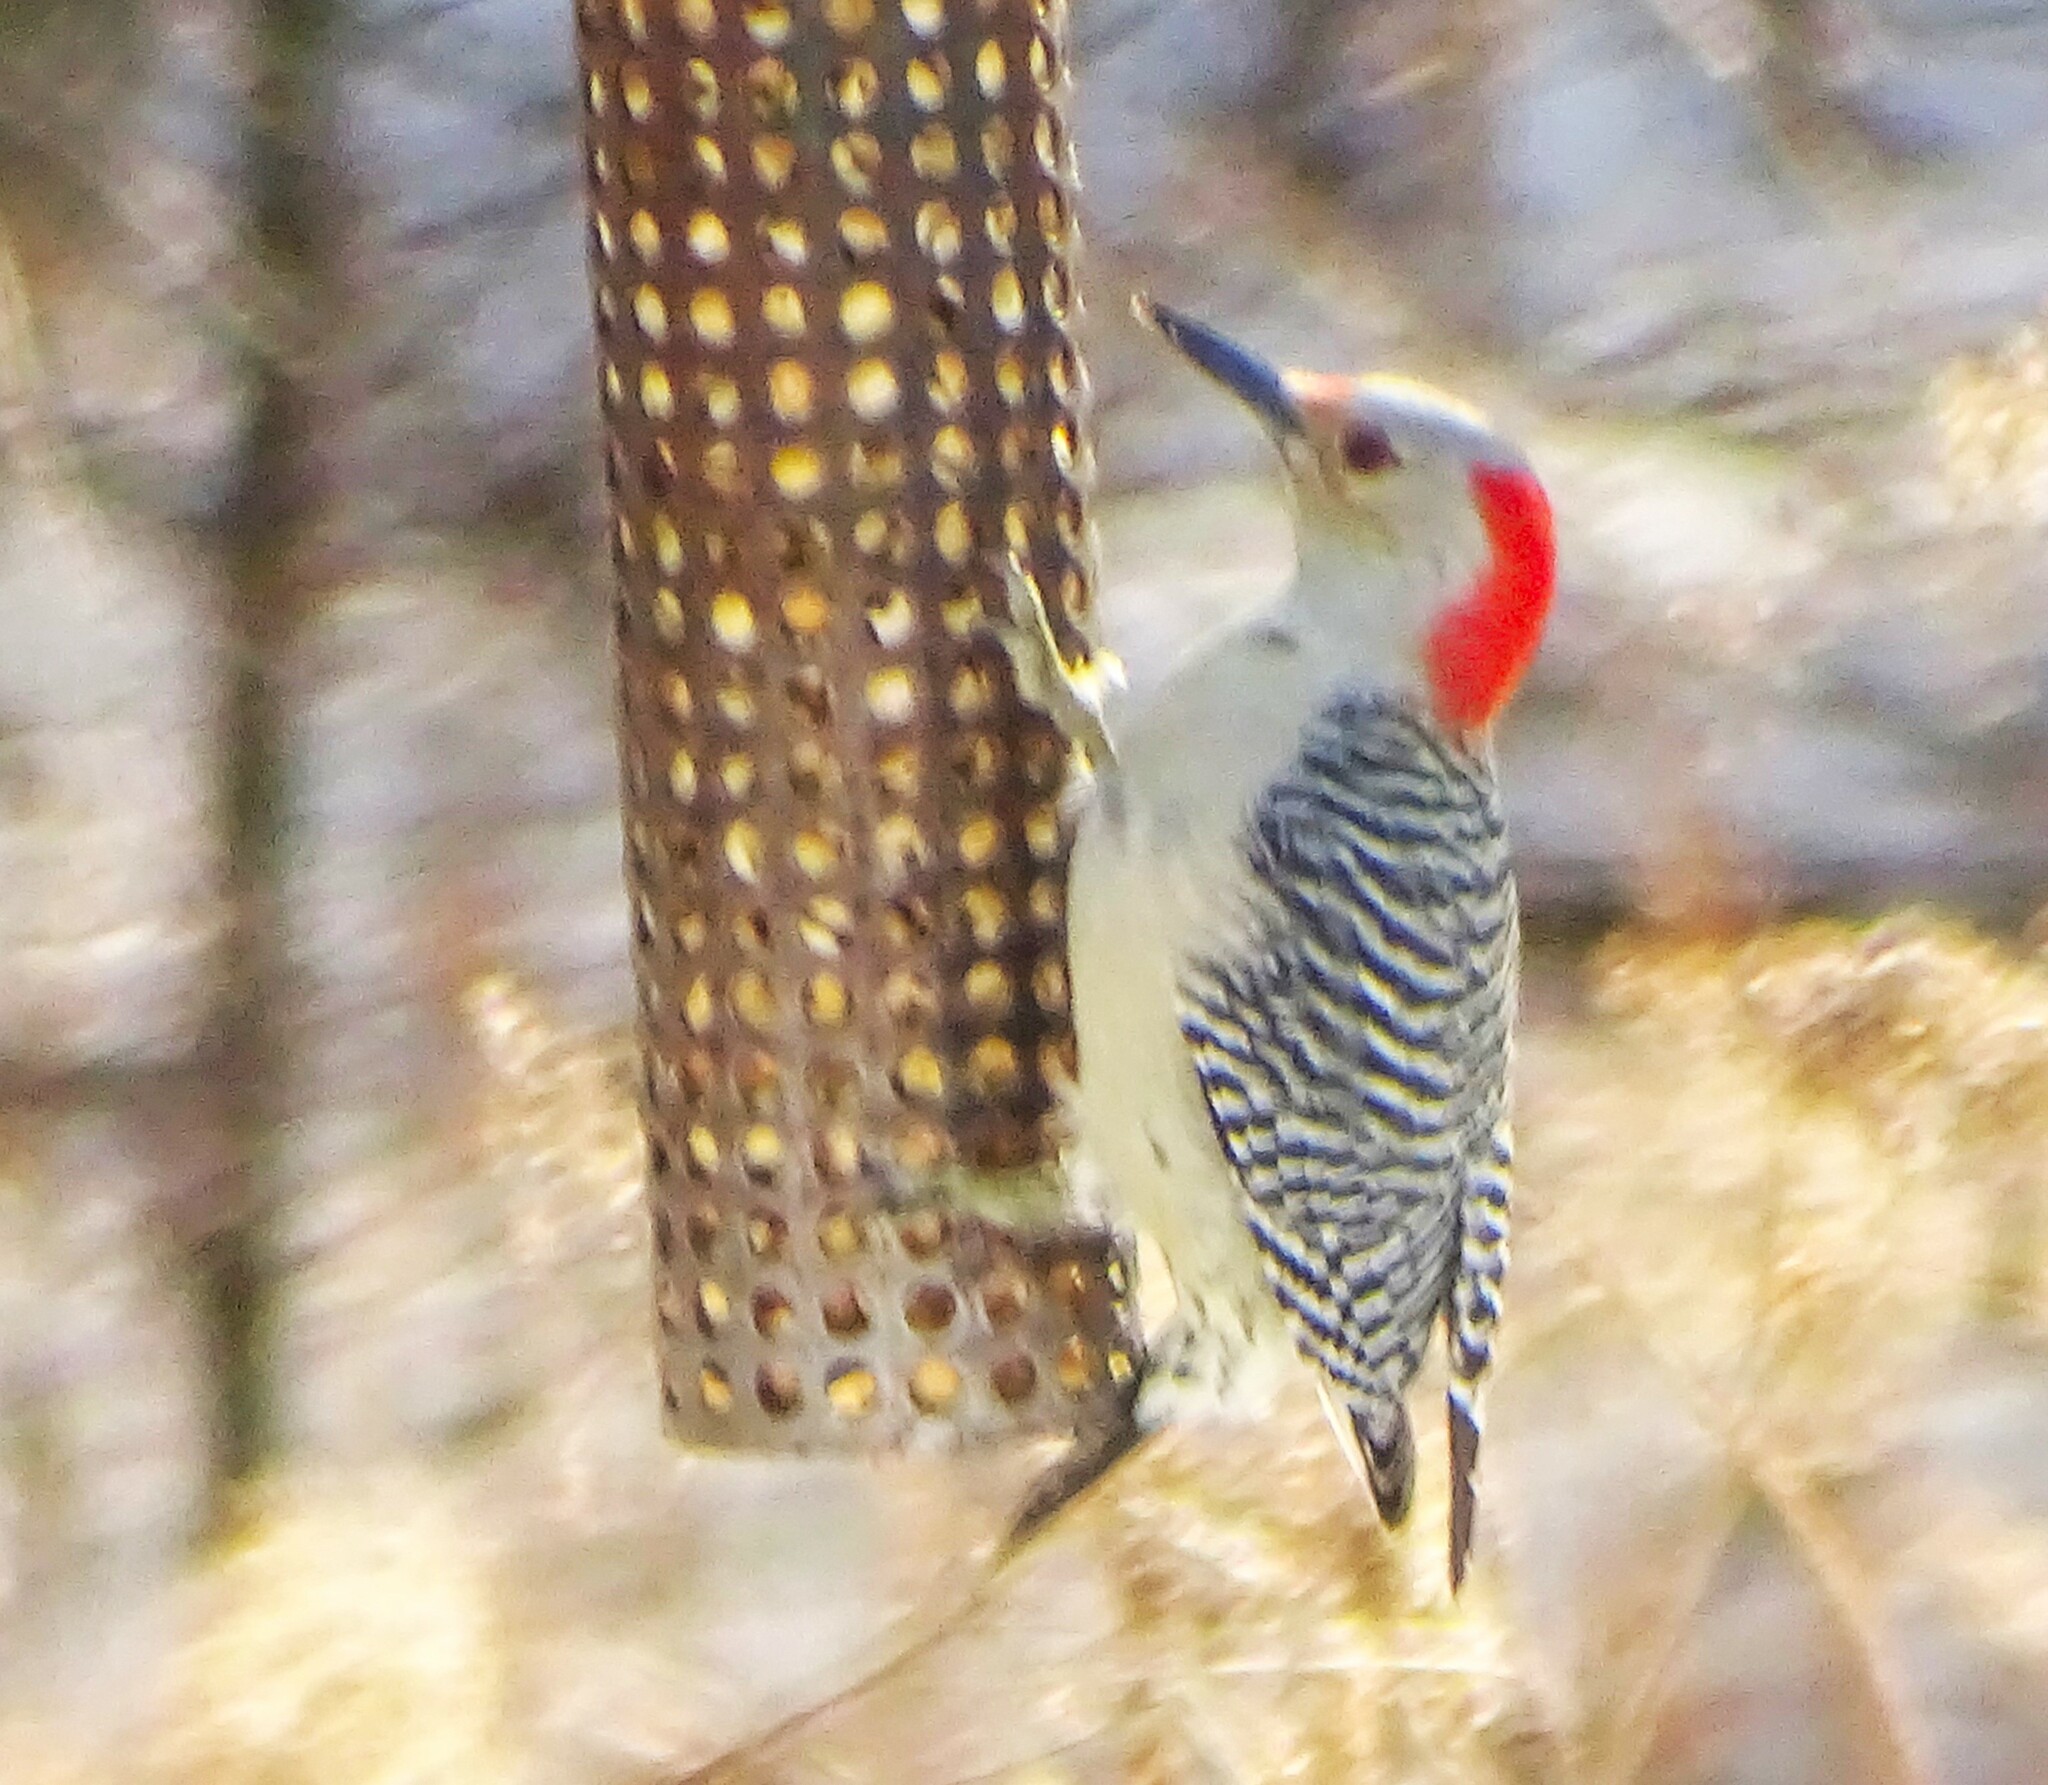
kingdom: Animalia
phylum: Chordata
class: Aves
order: Piciformes
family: Picidae
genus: Melanerpes
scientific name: Melanerpes carolinus
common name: Red-bellied woodpecker
